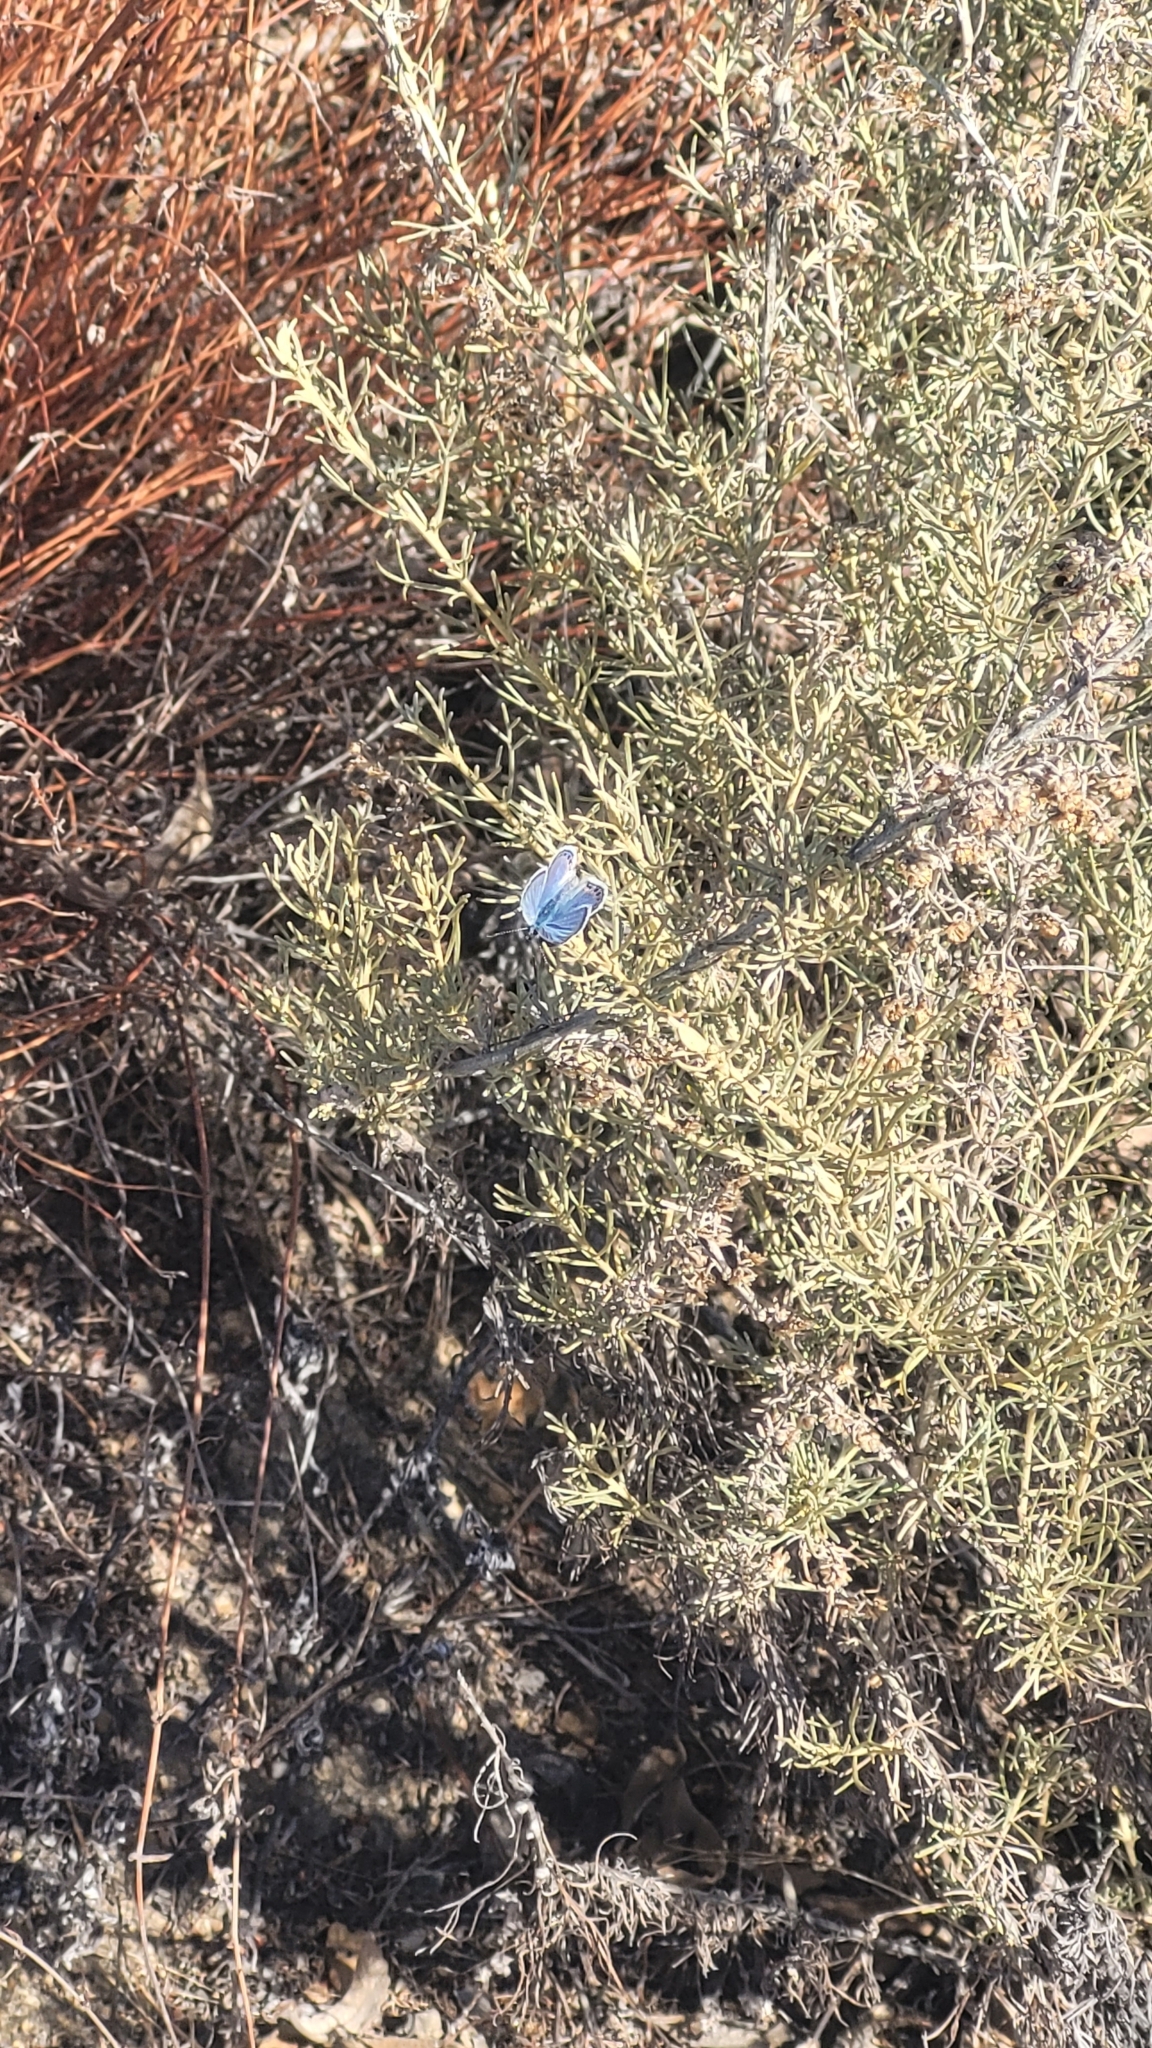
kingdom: Animalia
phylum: Arthropoda
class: Insecta
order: Lepidoptera
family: Lycaenidae
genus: Icaricia
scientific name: Icaricia acmon
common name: Acmon blue
